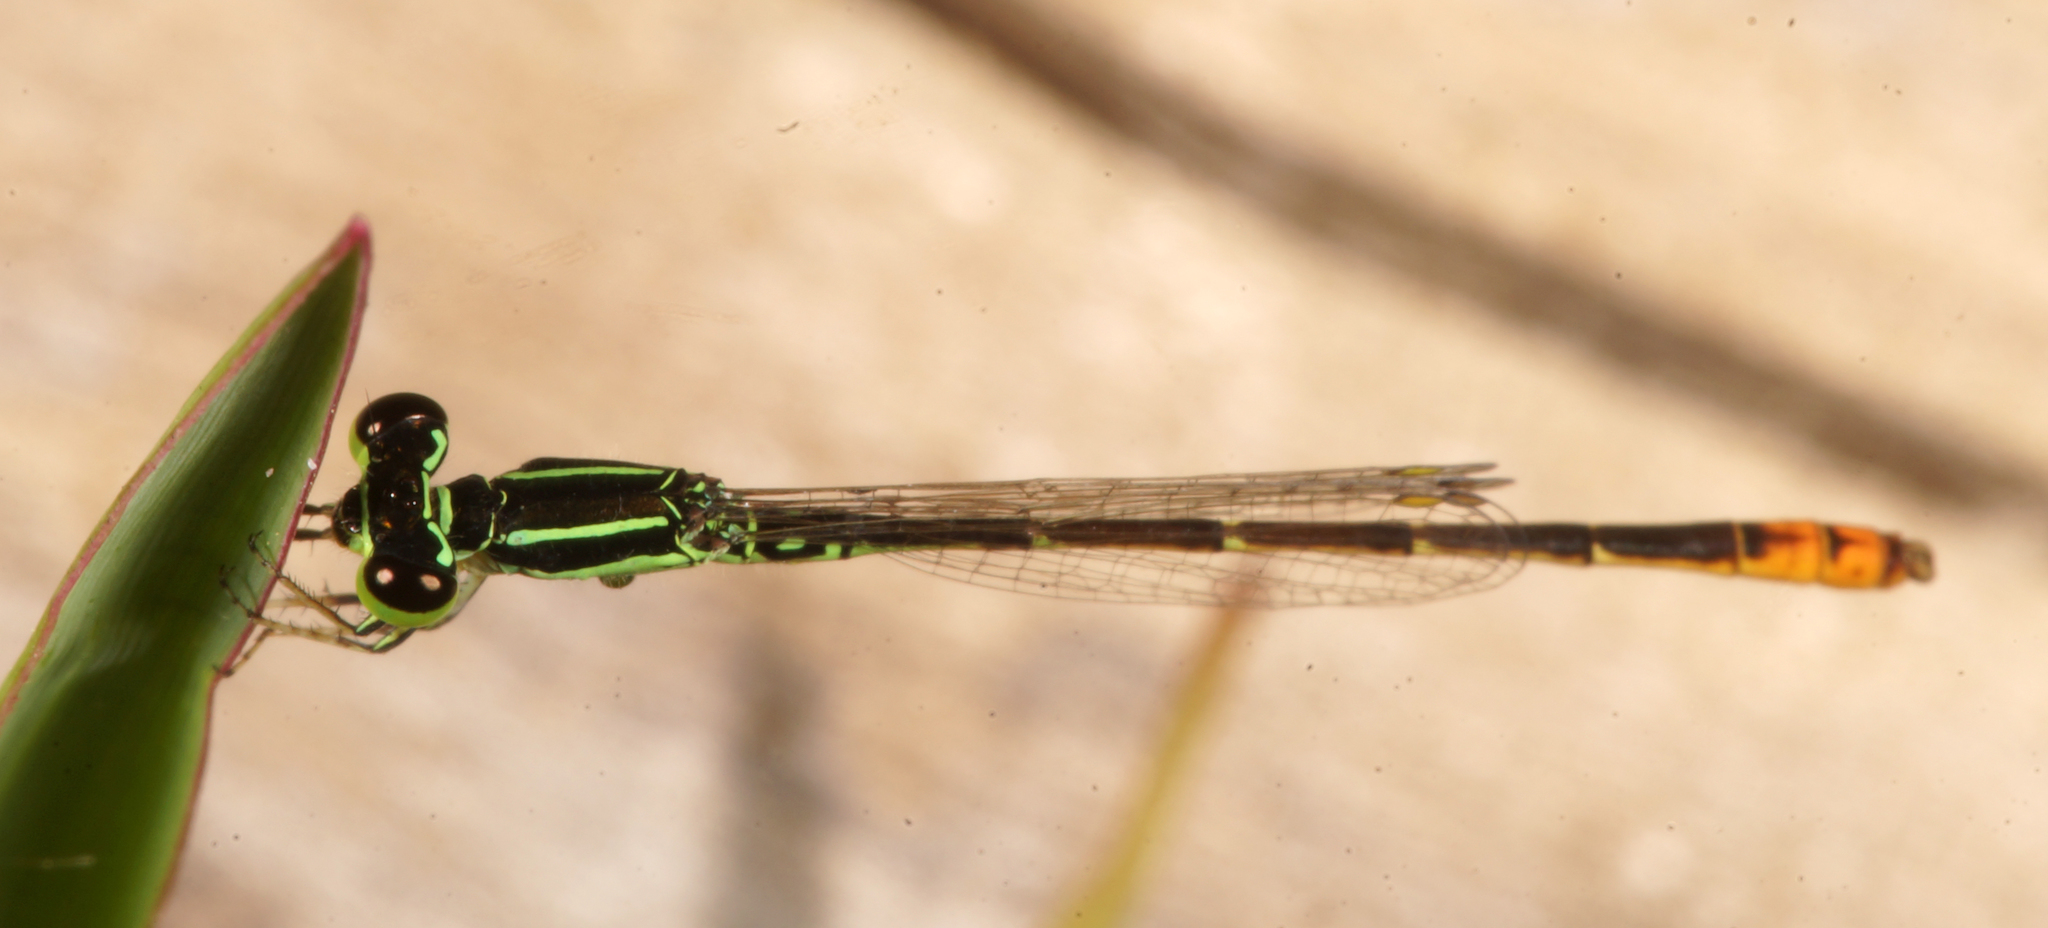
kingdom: Animalia
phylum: Arthropoda
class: Insecta
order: Odonata
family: Coenagrionidae
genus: Agriocnemis
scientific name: Agriocnemis minima
